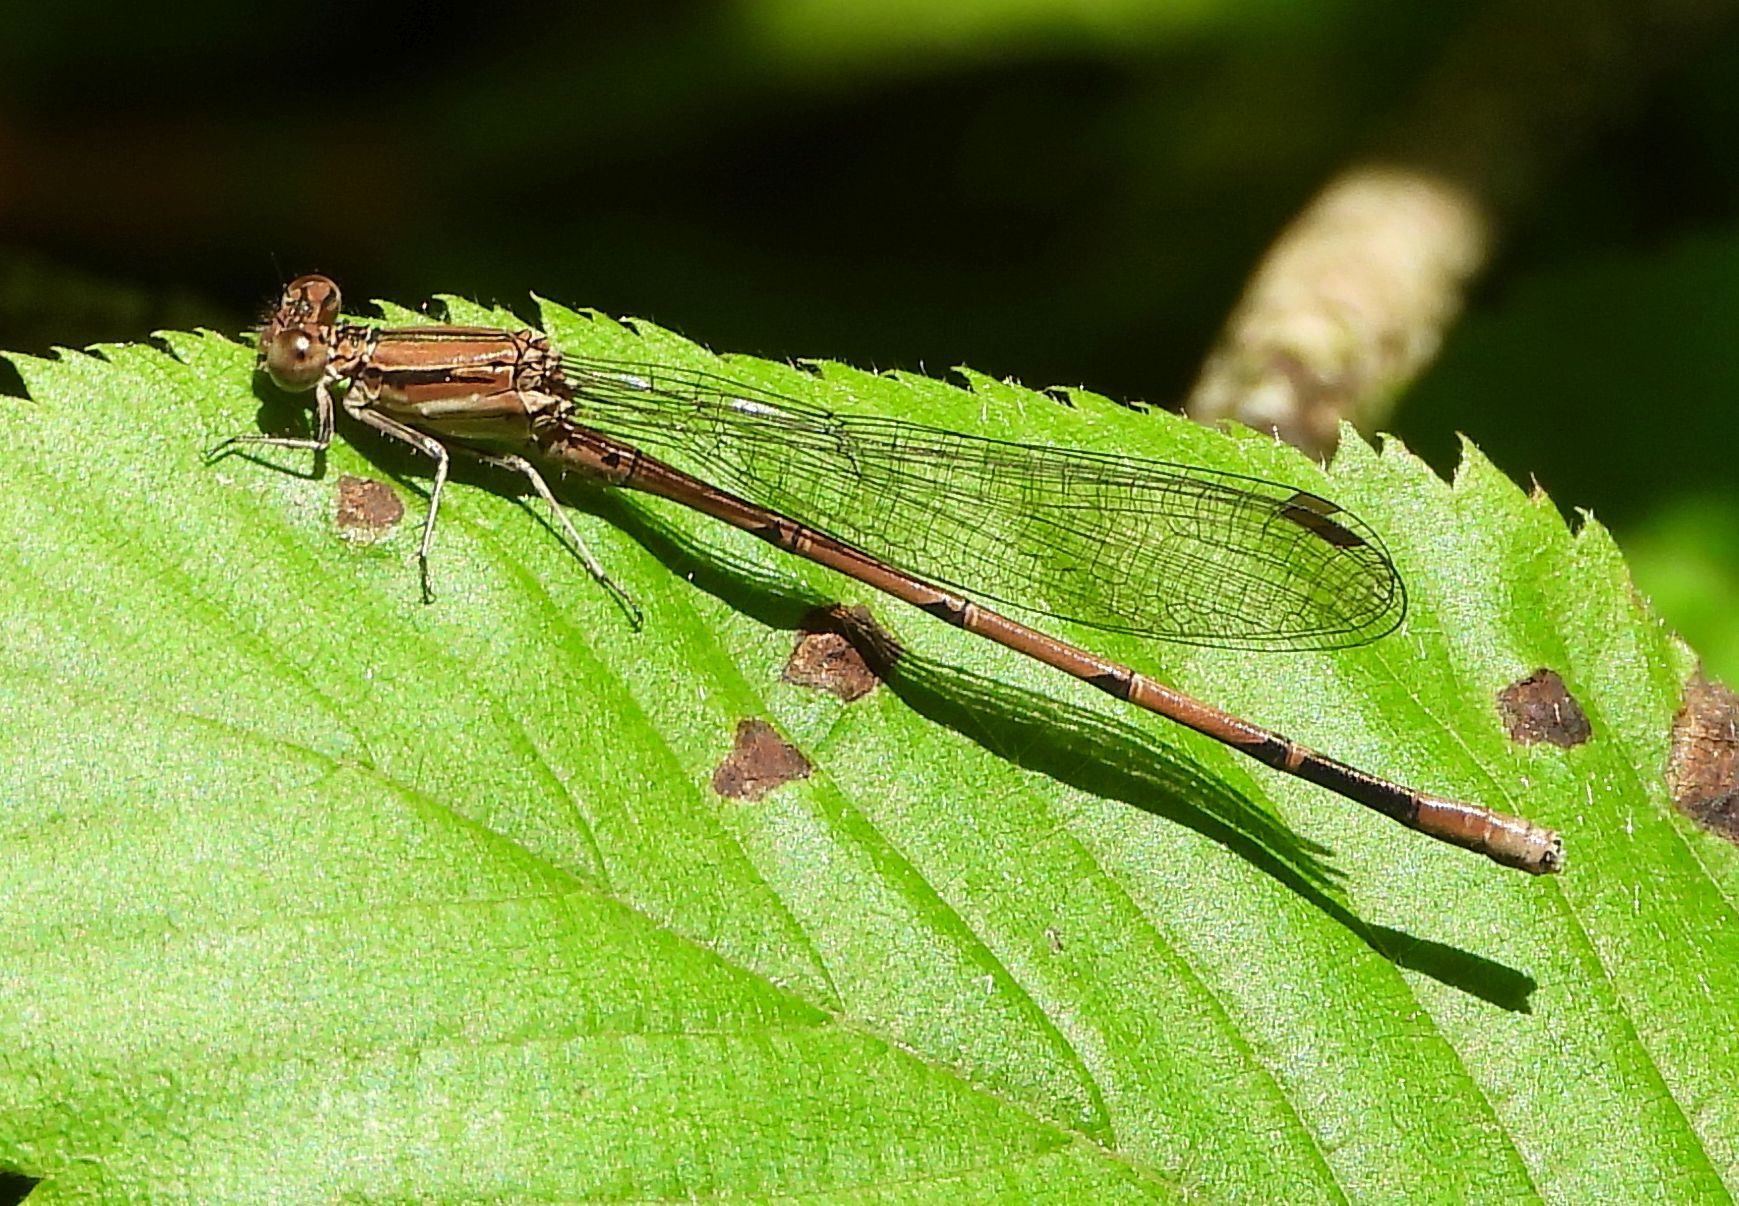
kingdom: Animalia
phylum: Arthropoda
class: Insecta
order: Odonata
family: Coenagrionidae
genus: Argia
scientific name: Argia fumipennis
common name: Variable dancer
